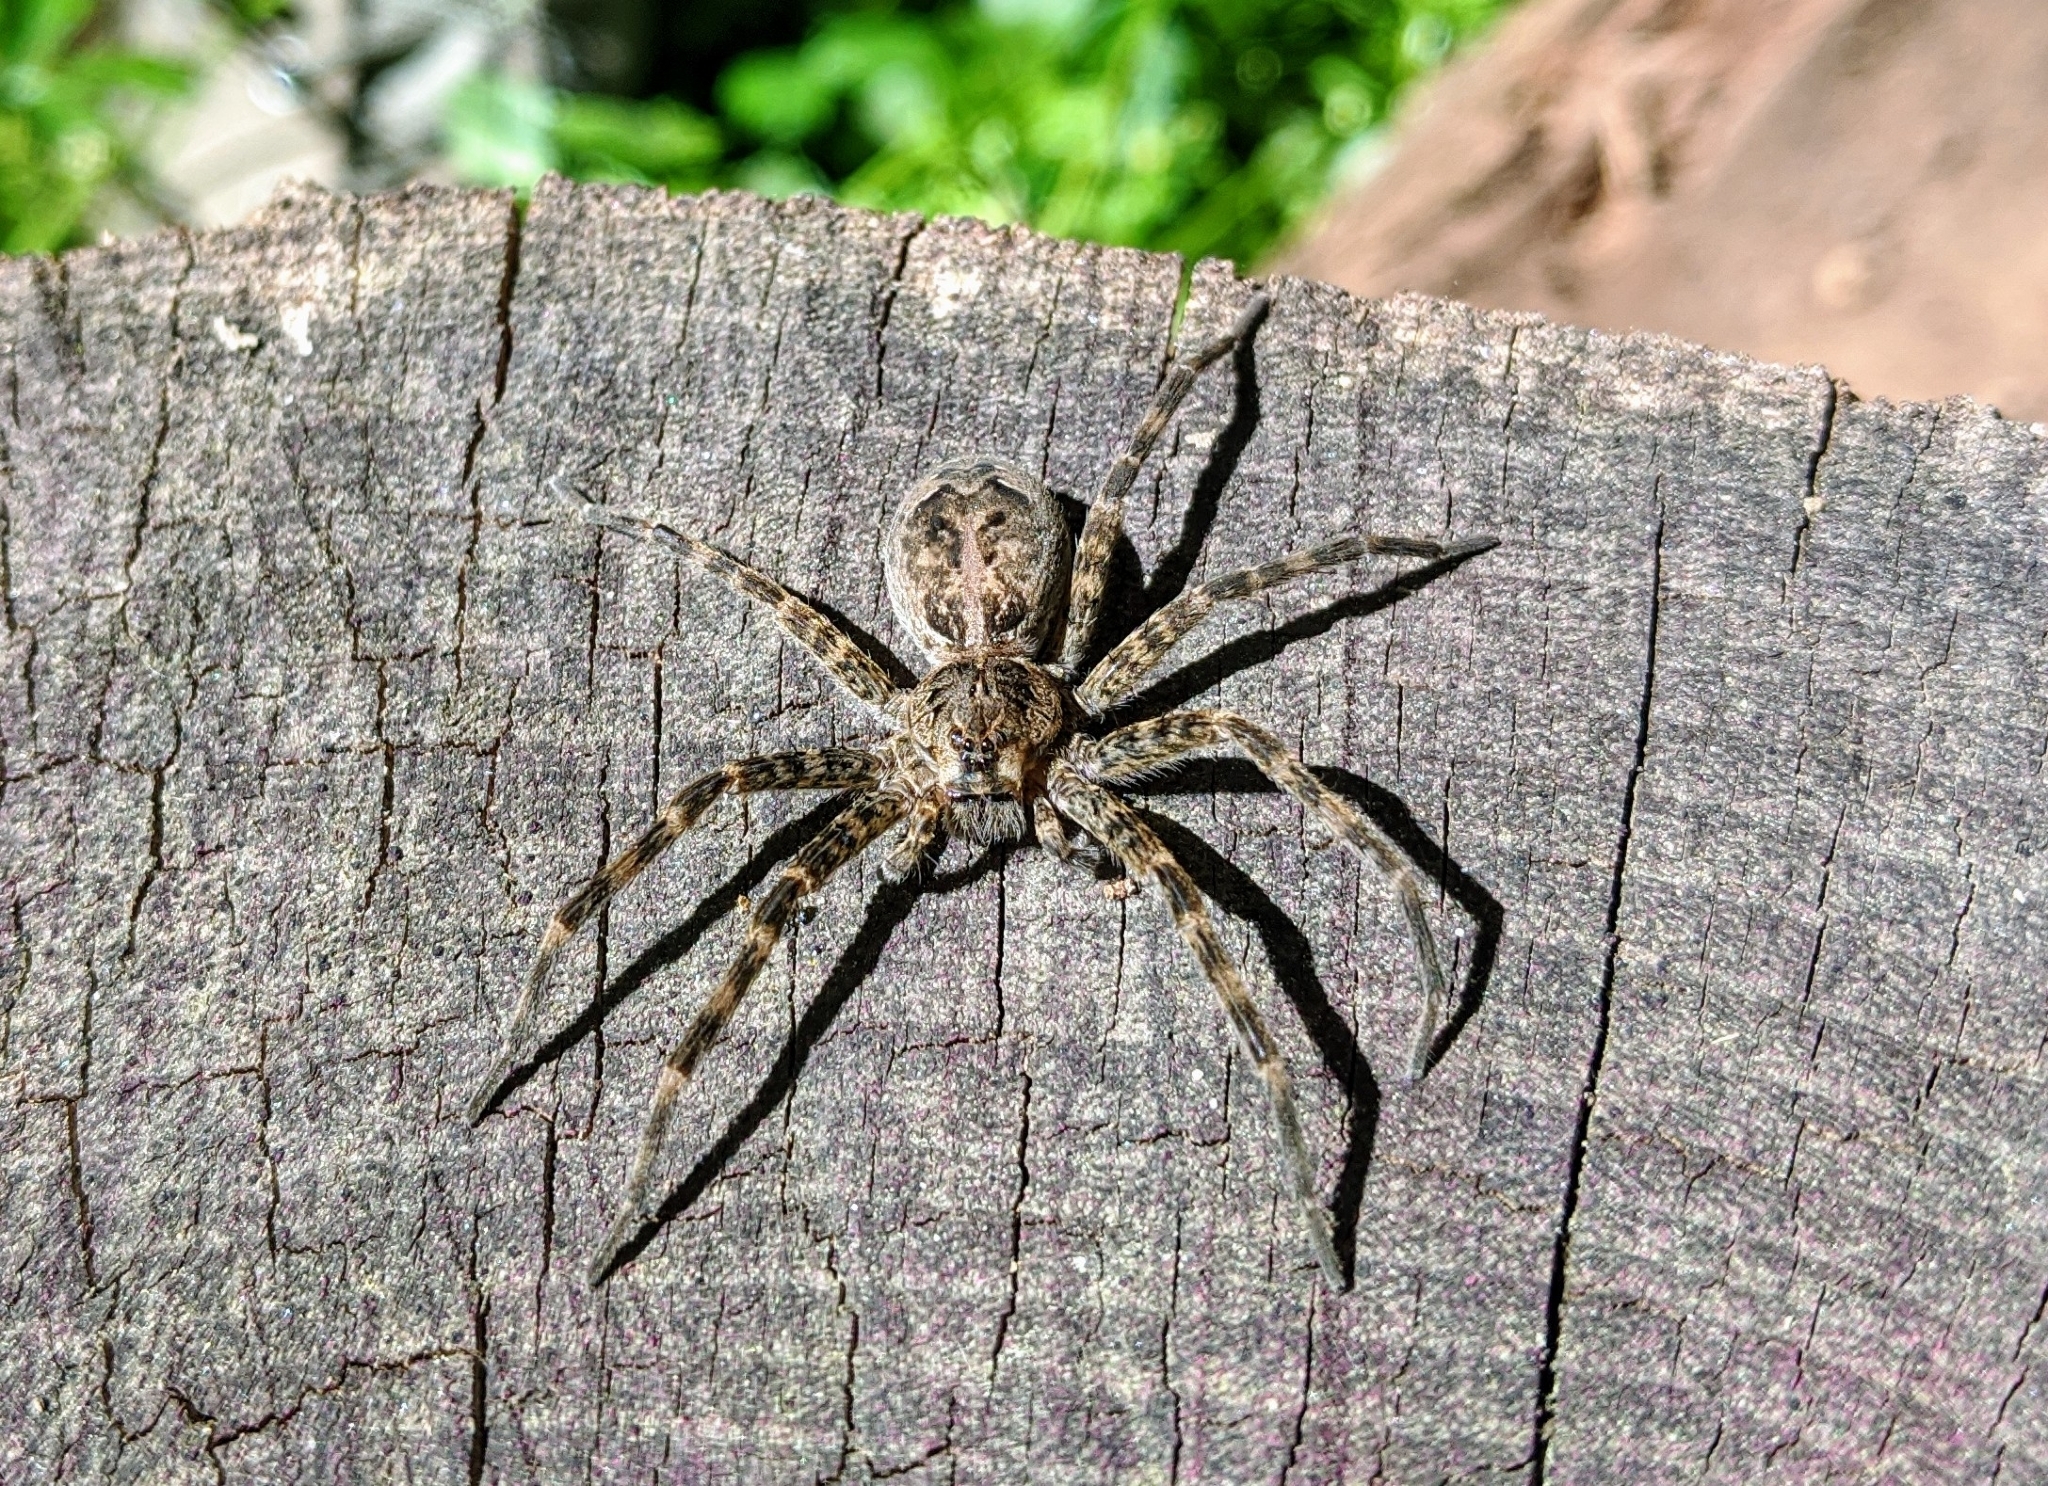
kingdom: Animalia
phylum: Arthropoda
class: Arachnida
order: Araneae
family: Pisauridae
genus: Dolomedes
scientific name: Dolomedes tenebrosus
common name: Dark fishing spider
